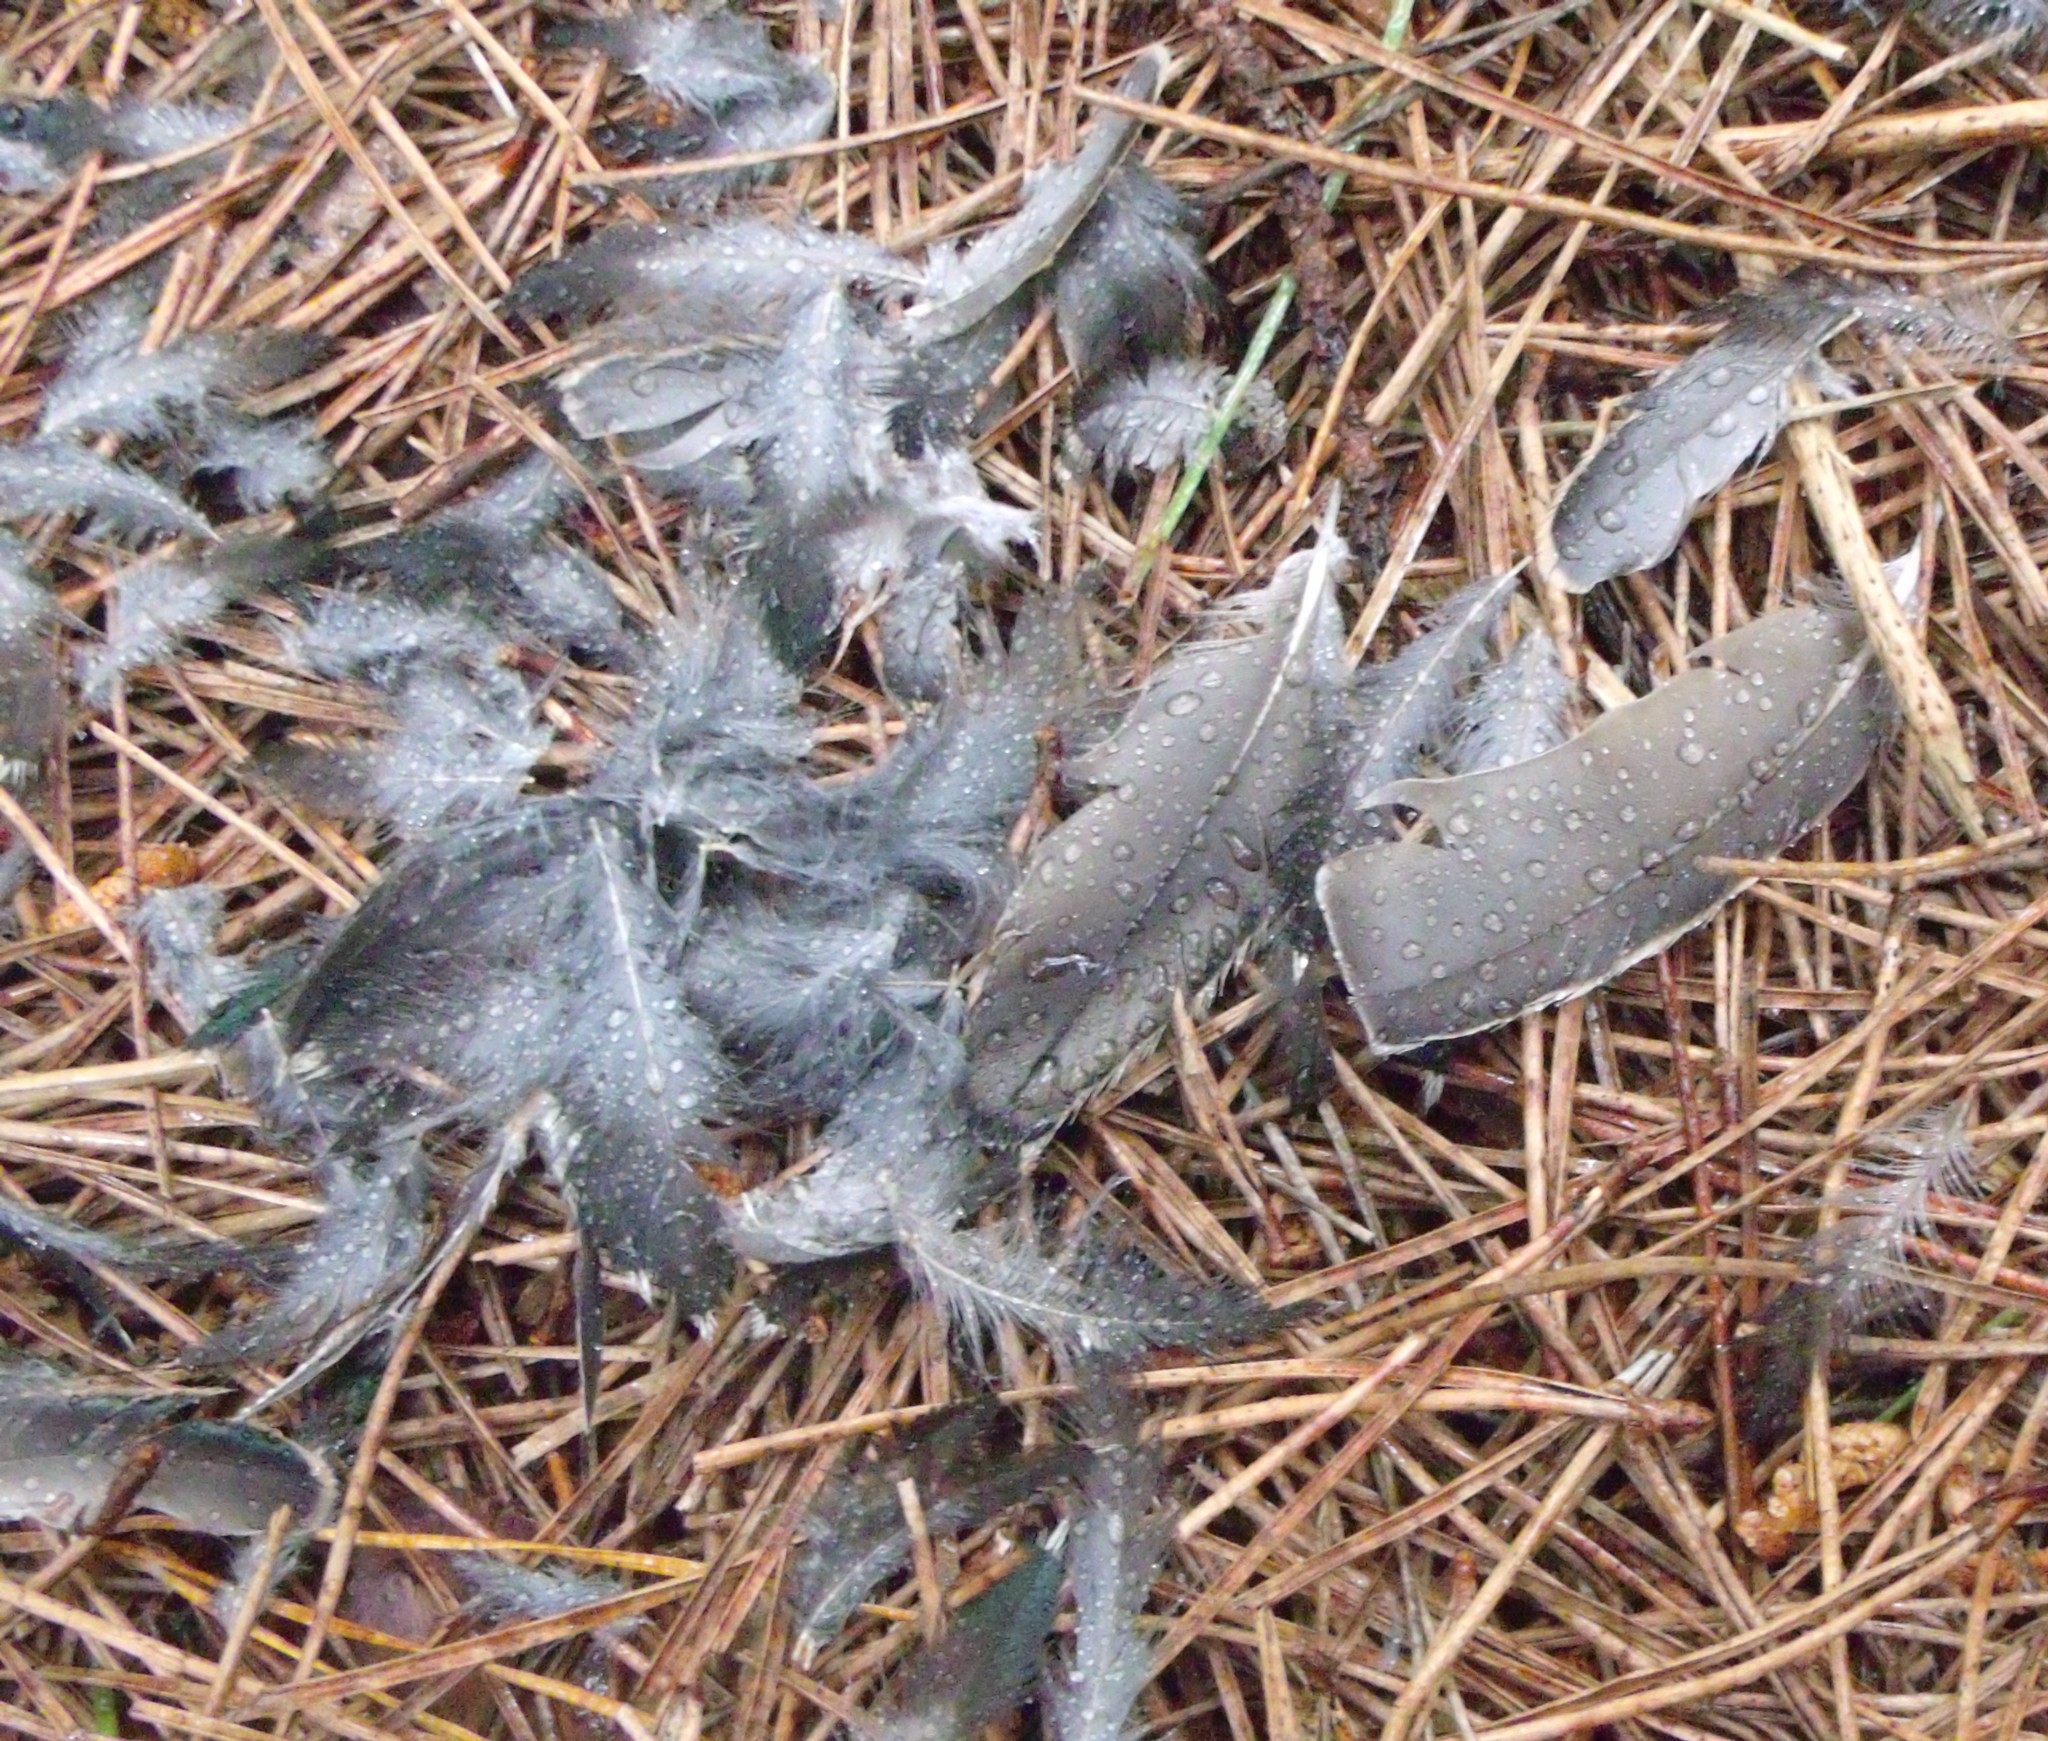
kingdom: Animalia
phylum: Chordata
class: Aves
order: Passeriformes
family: Sturnidae
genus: Sturnus
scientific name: Sturnus vulgaris
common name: Common starling
